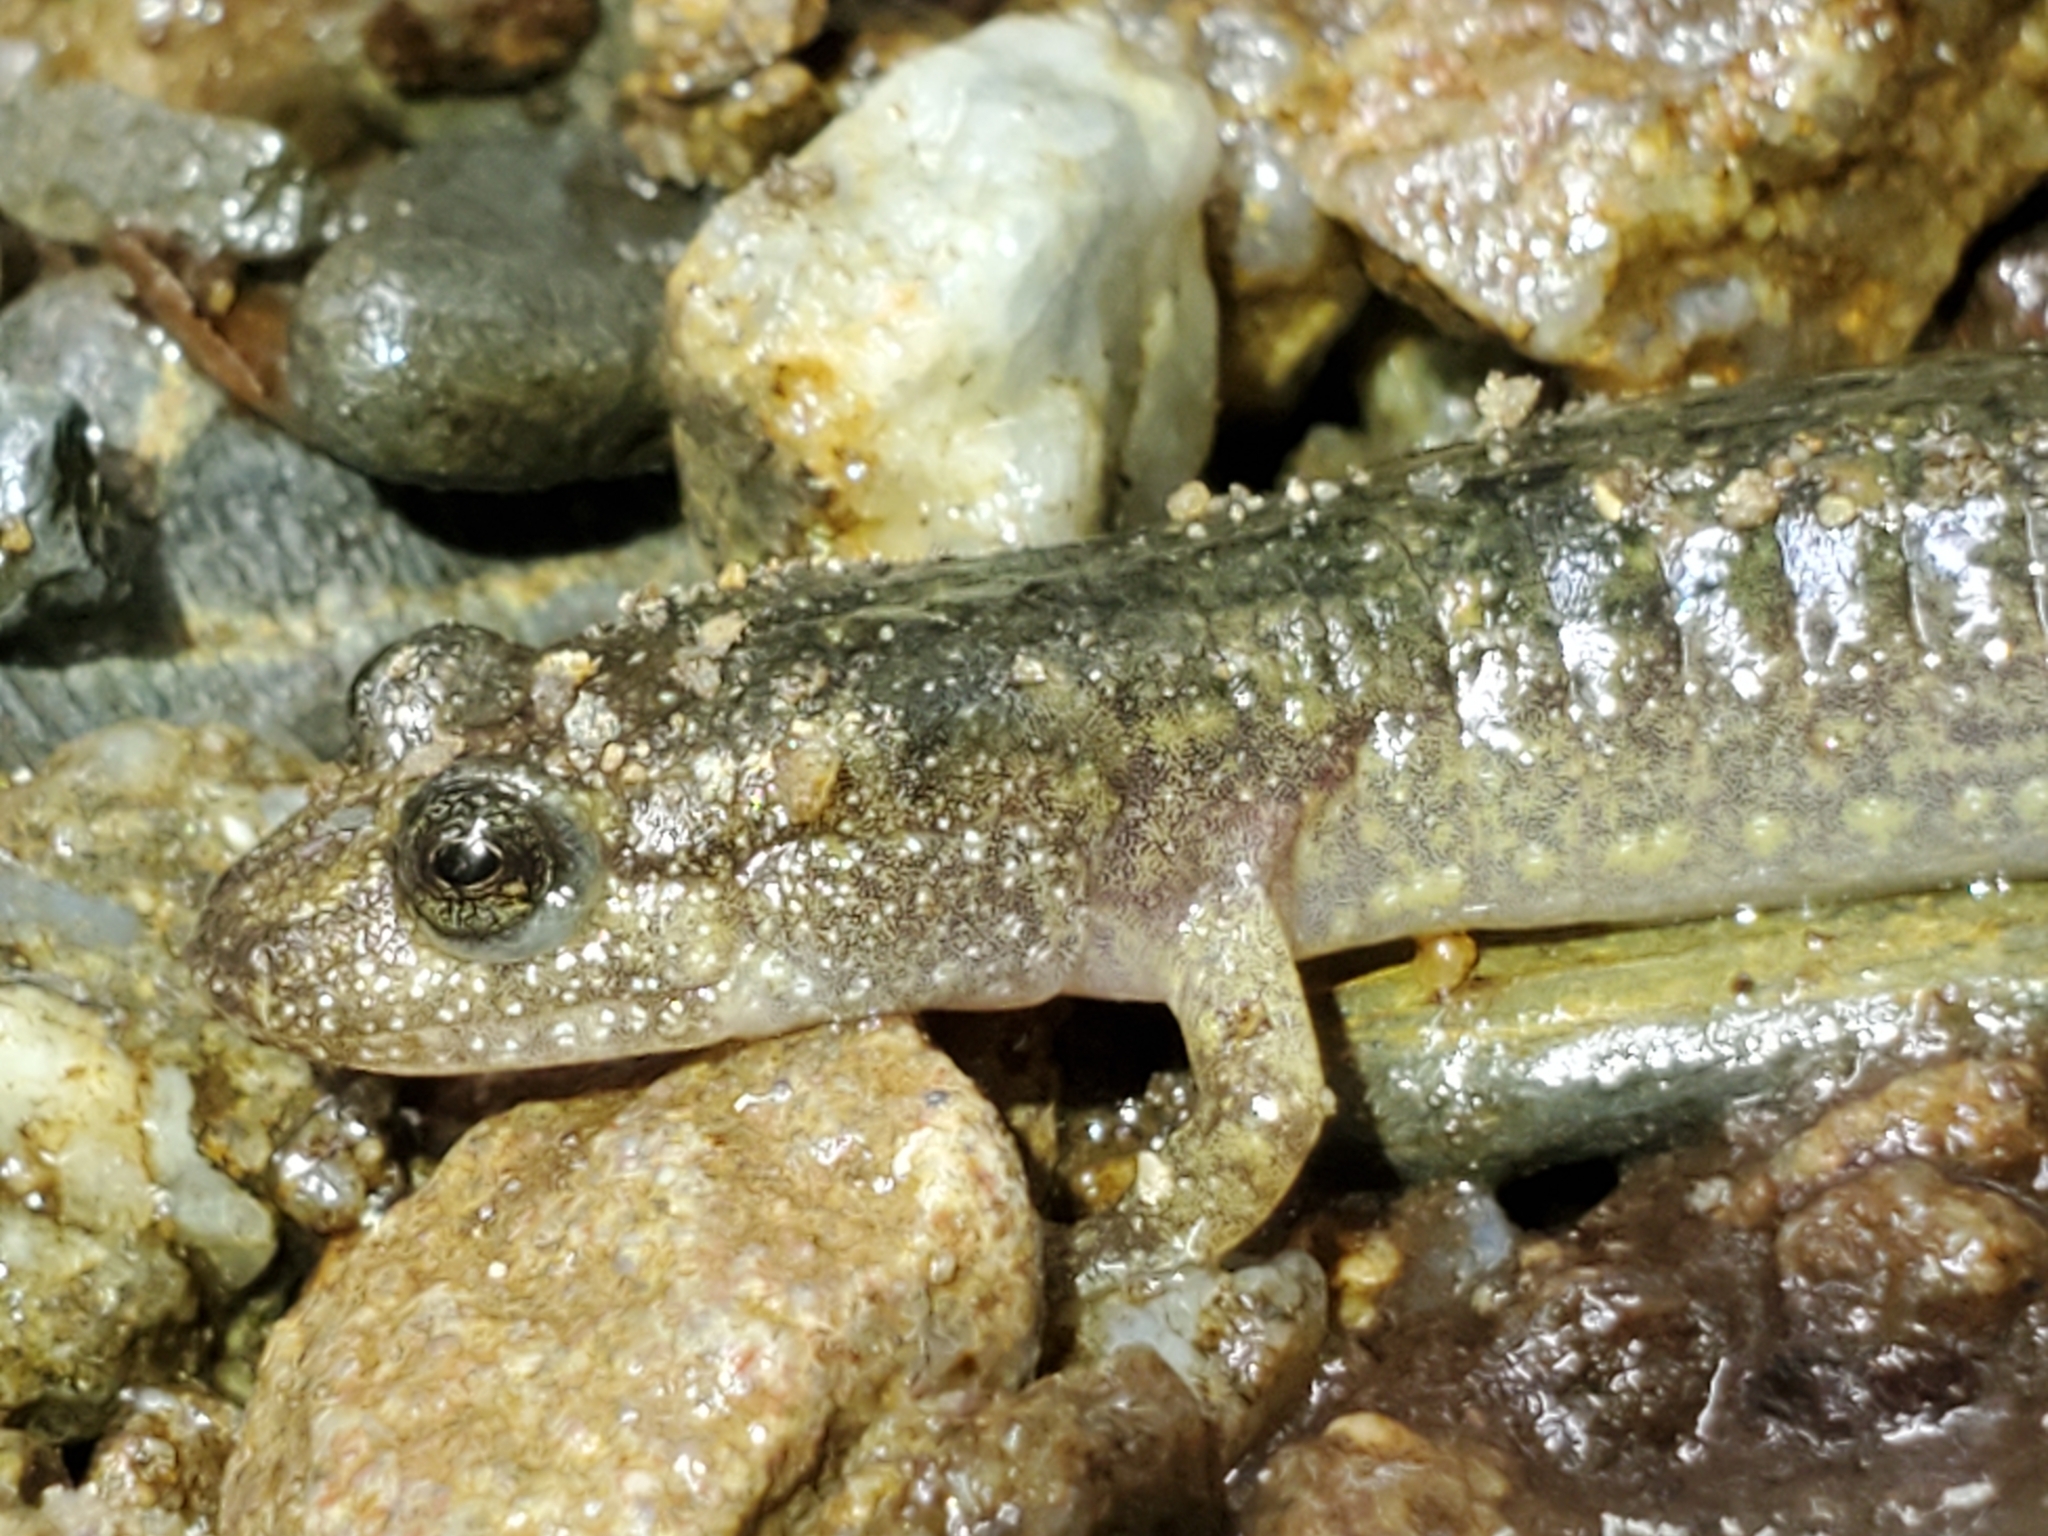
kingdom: Animalia
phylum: Chordata
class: Amphibia
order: Caudata
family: Plethodontidae
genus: Desmognathus
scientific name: Desmognathus
